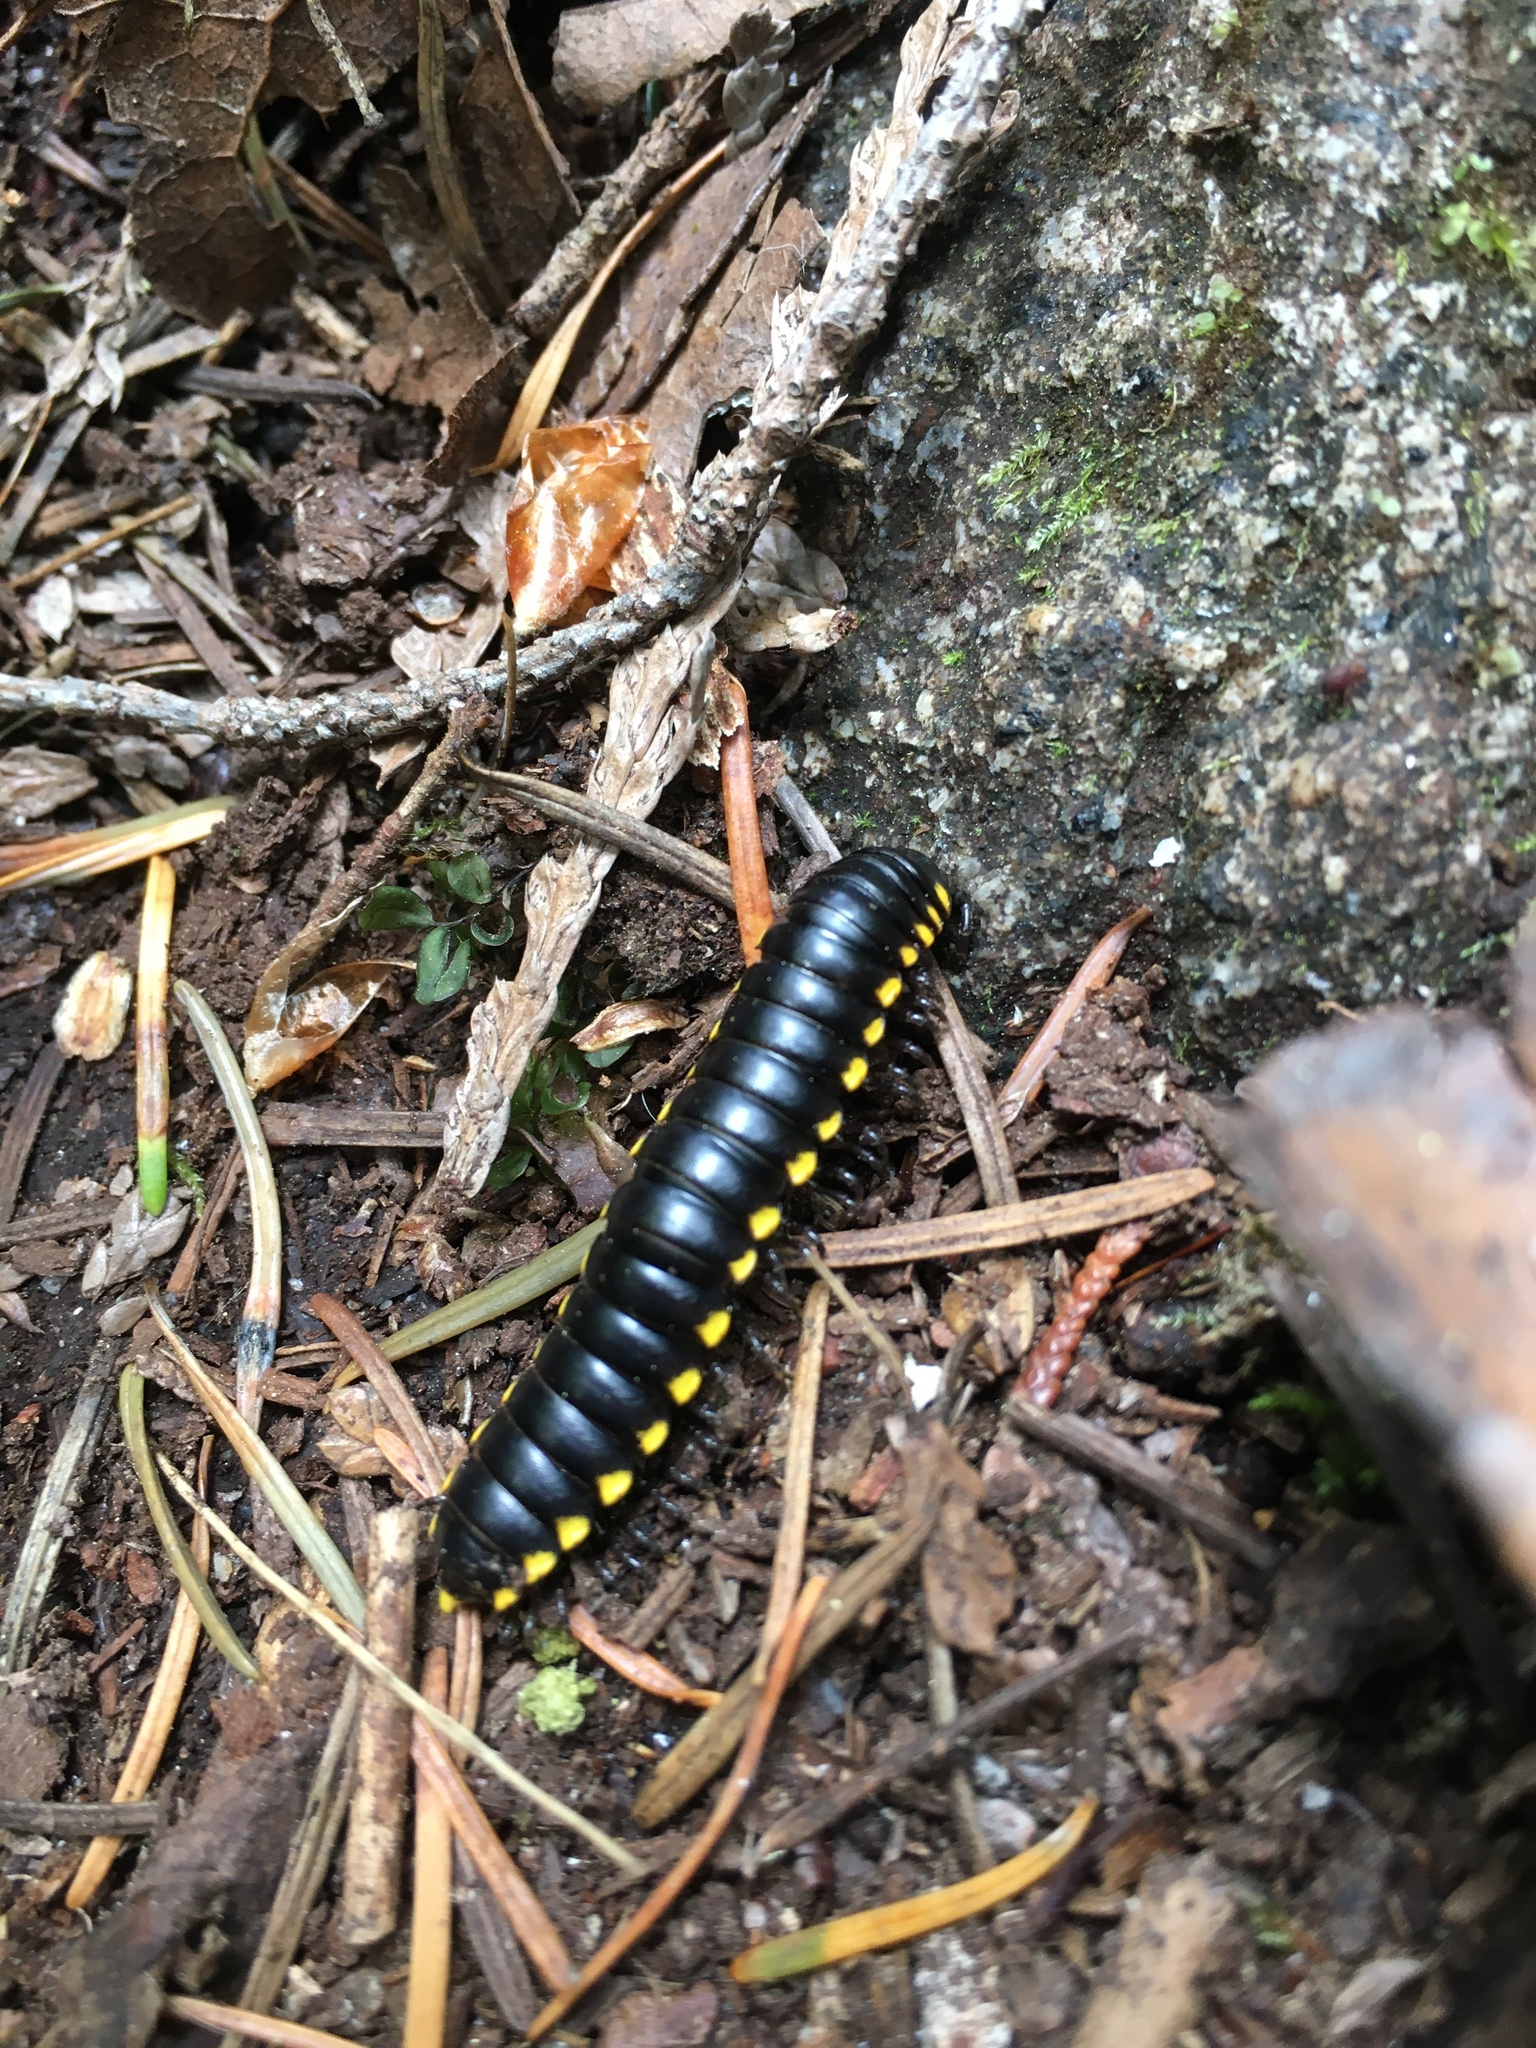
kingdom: Animalia
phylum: Arthropoda
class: Diplopoda
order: Polydesmida
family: Xystodesmidae
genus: Harpaphe
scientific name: Harpaphe haydeniana
